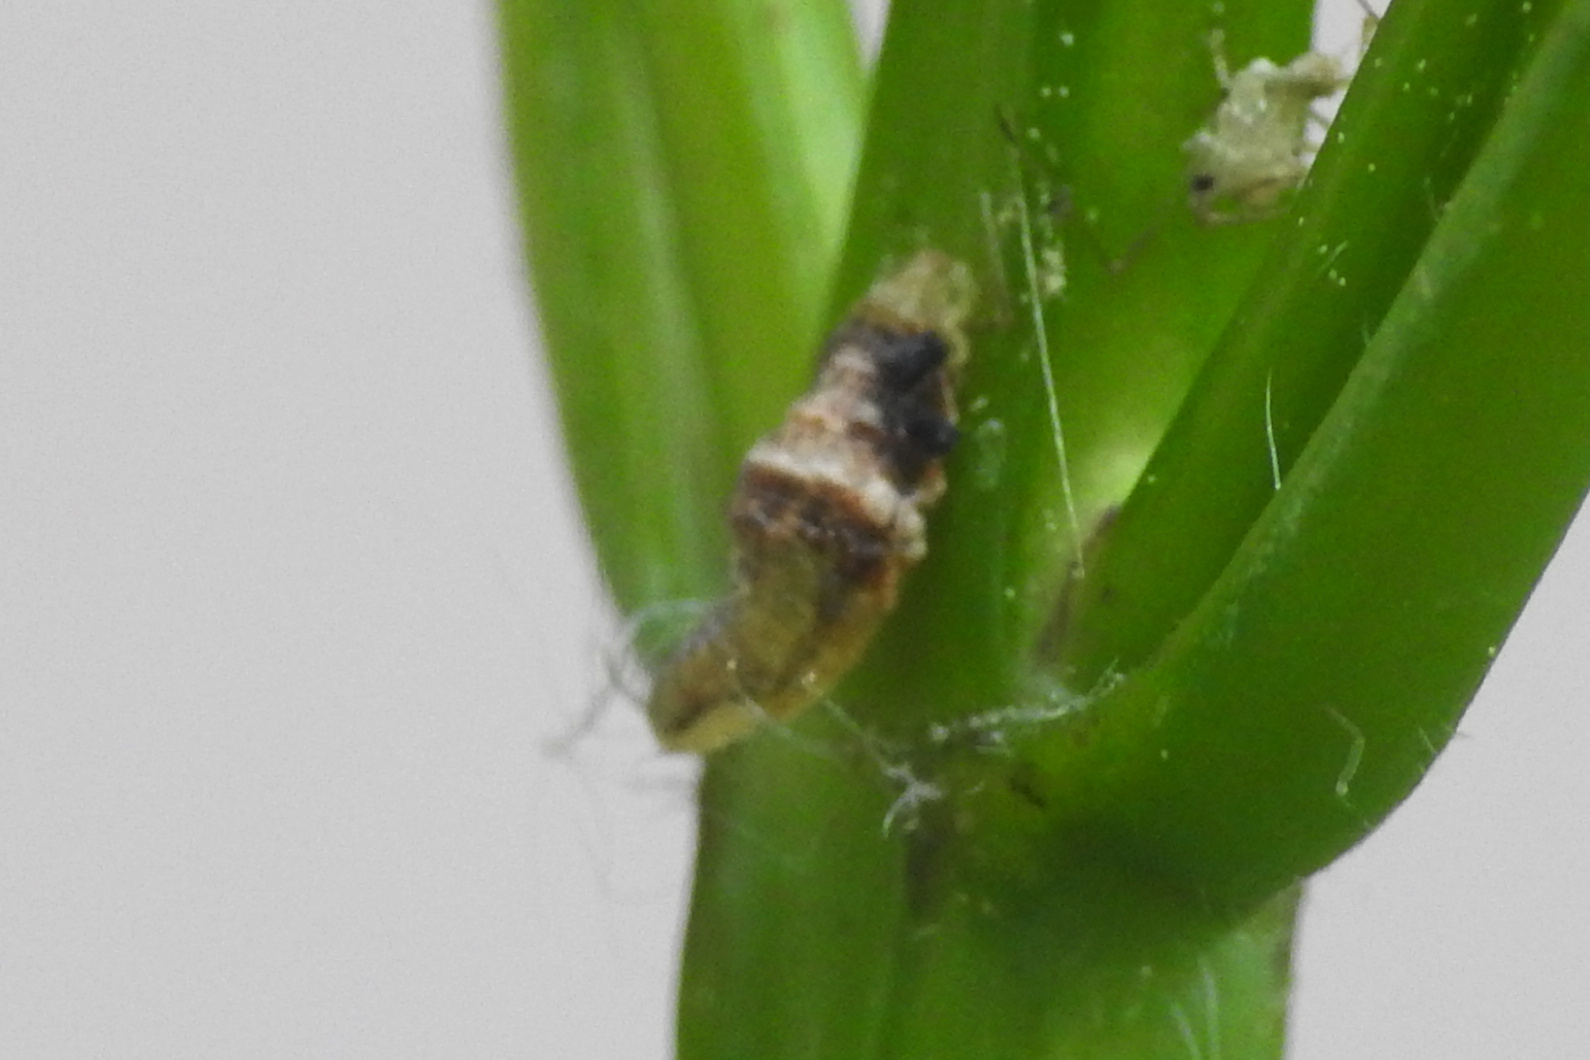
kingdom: Animalia
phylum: Arthropoda
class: Insecta
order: Diptera
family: Syrphidae
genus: Ocyptamus
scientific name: Ocyptamus fuscipennis
